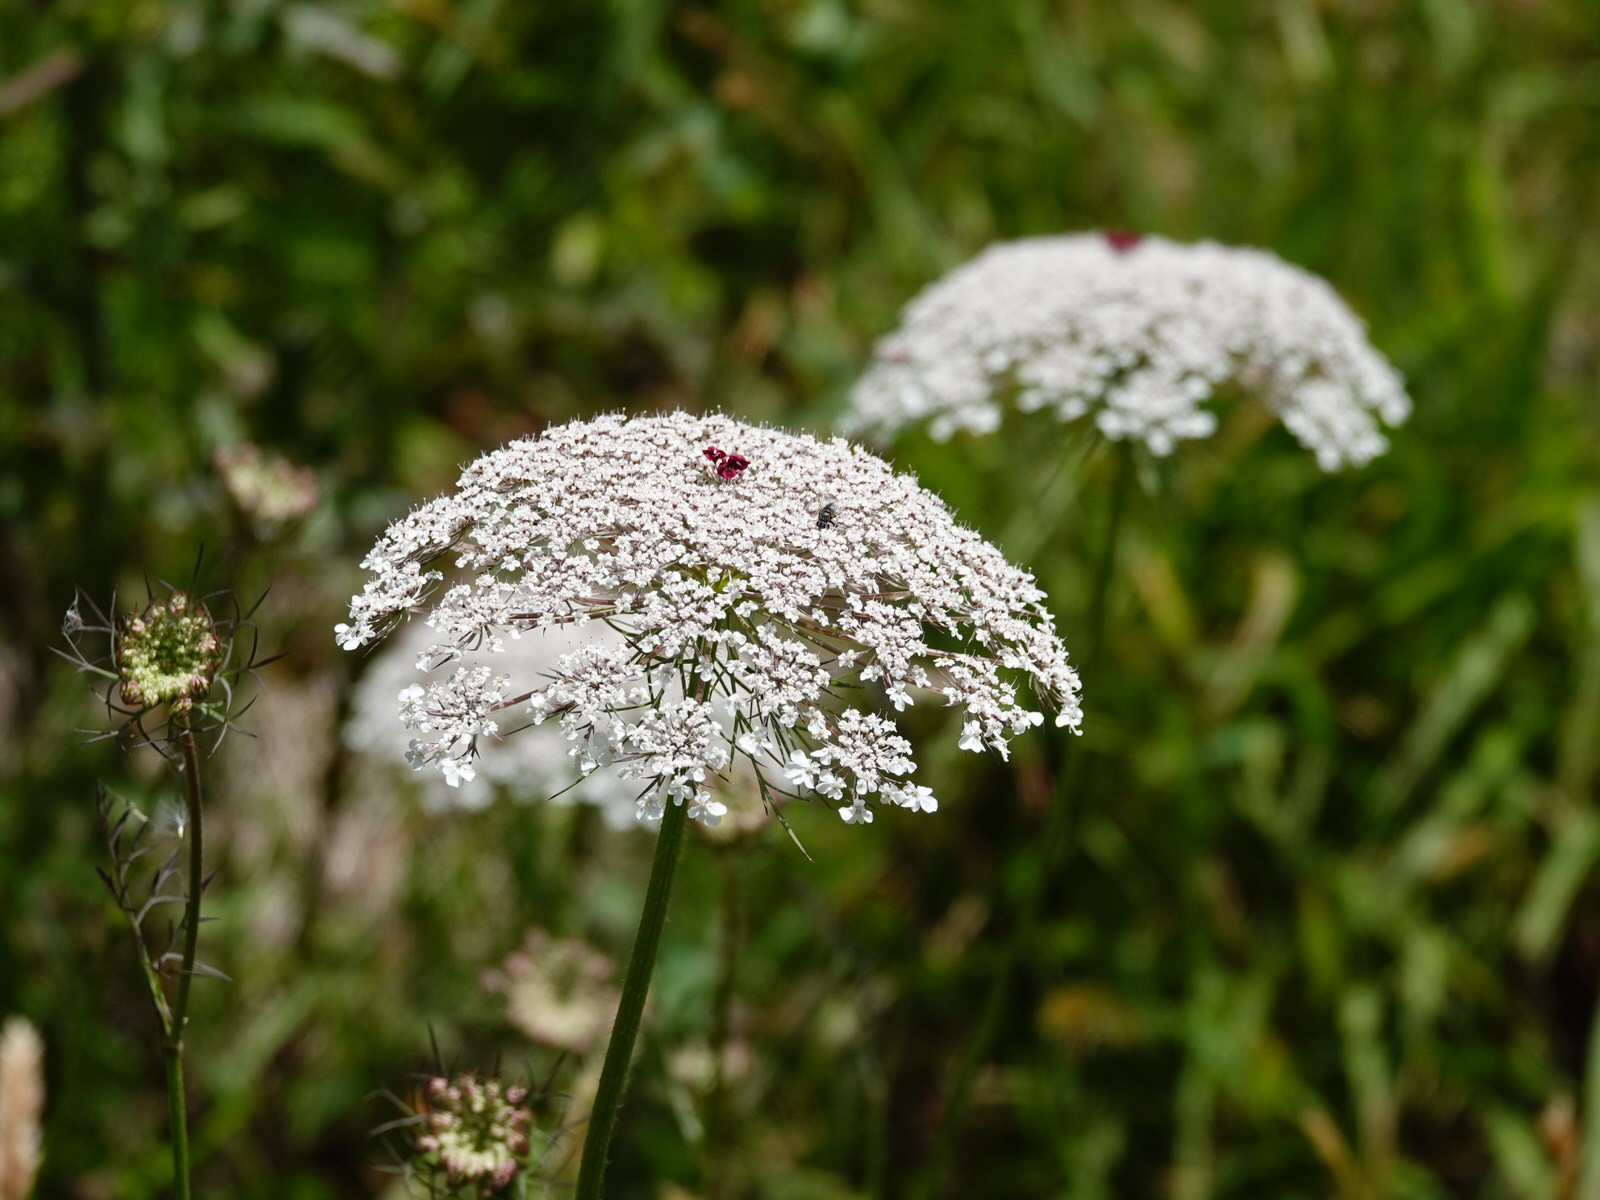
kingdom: Plantae
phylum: Tracheophyta
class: Magnoliopsida
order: Apiales
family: Apiaceae
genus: Daucus
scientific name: Daucus carota
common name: Wild carrot
